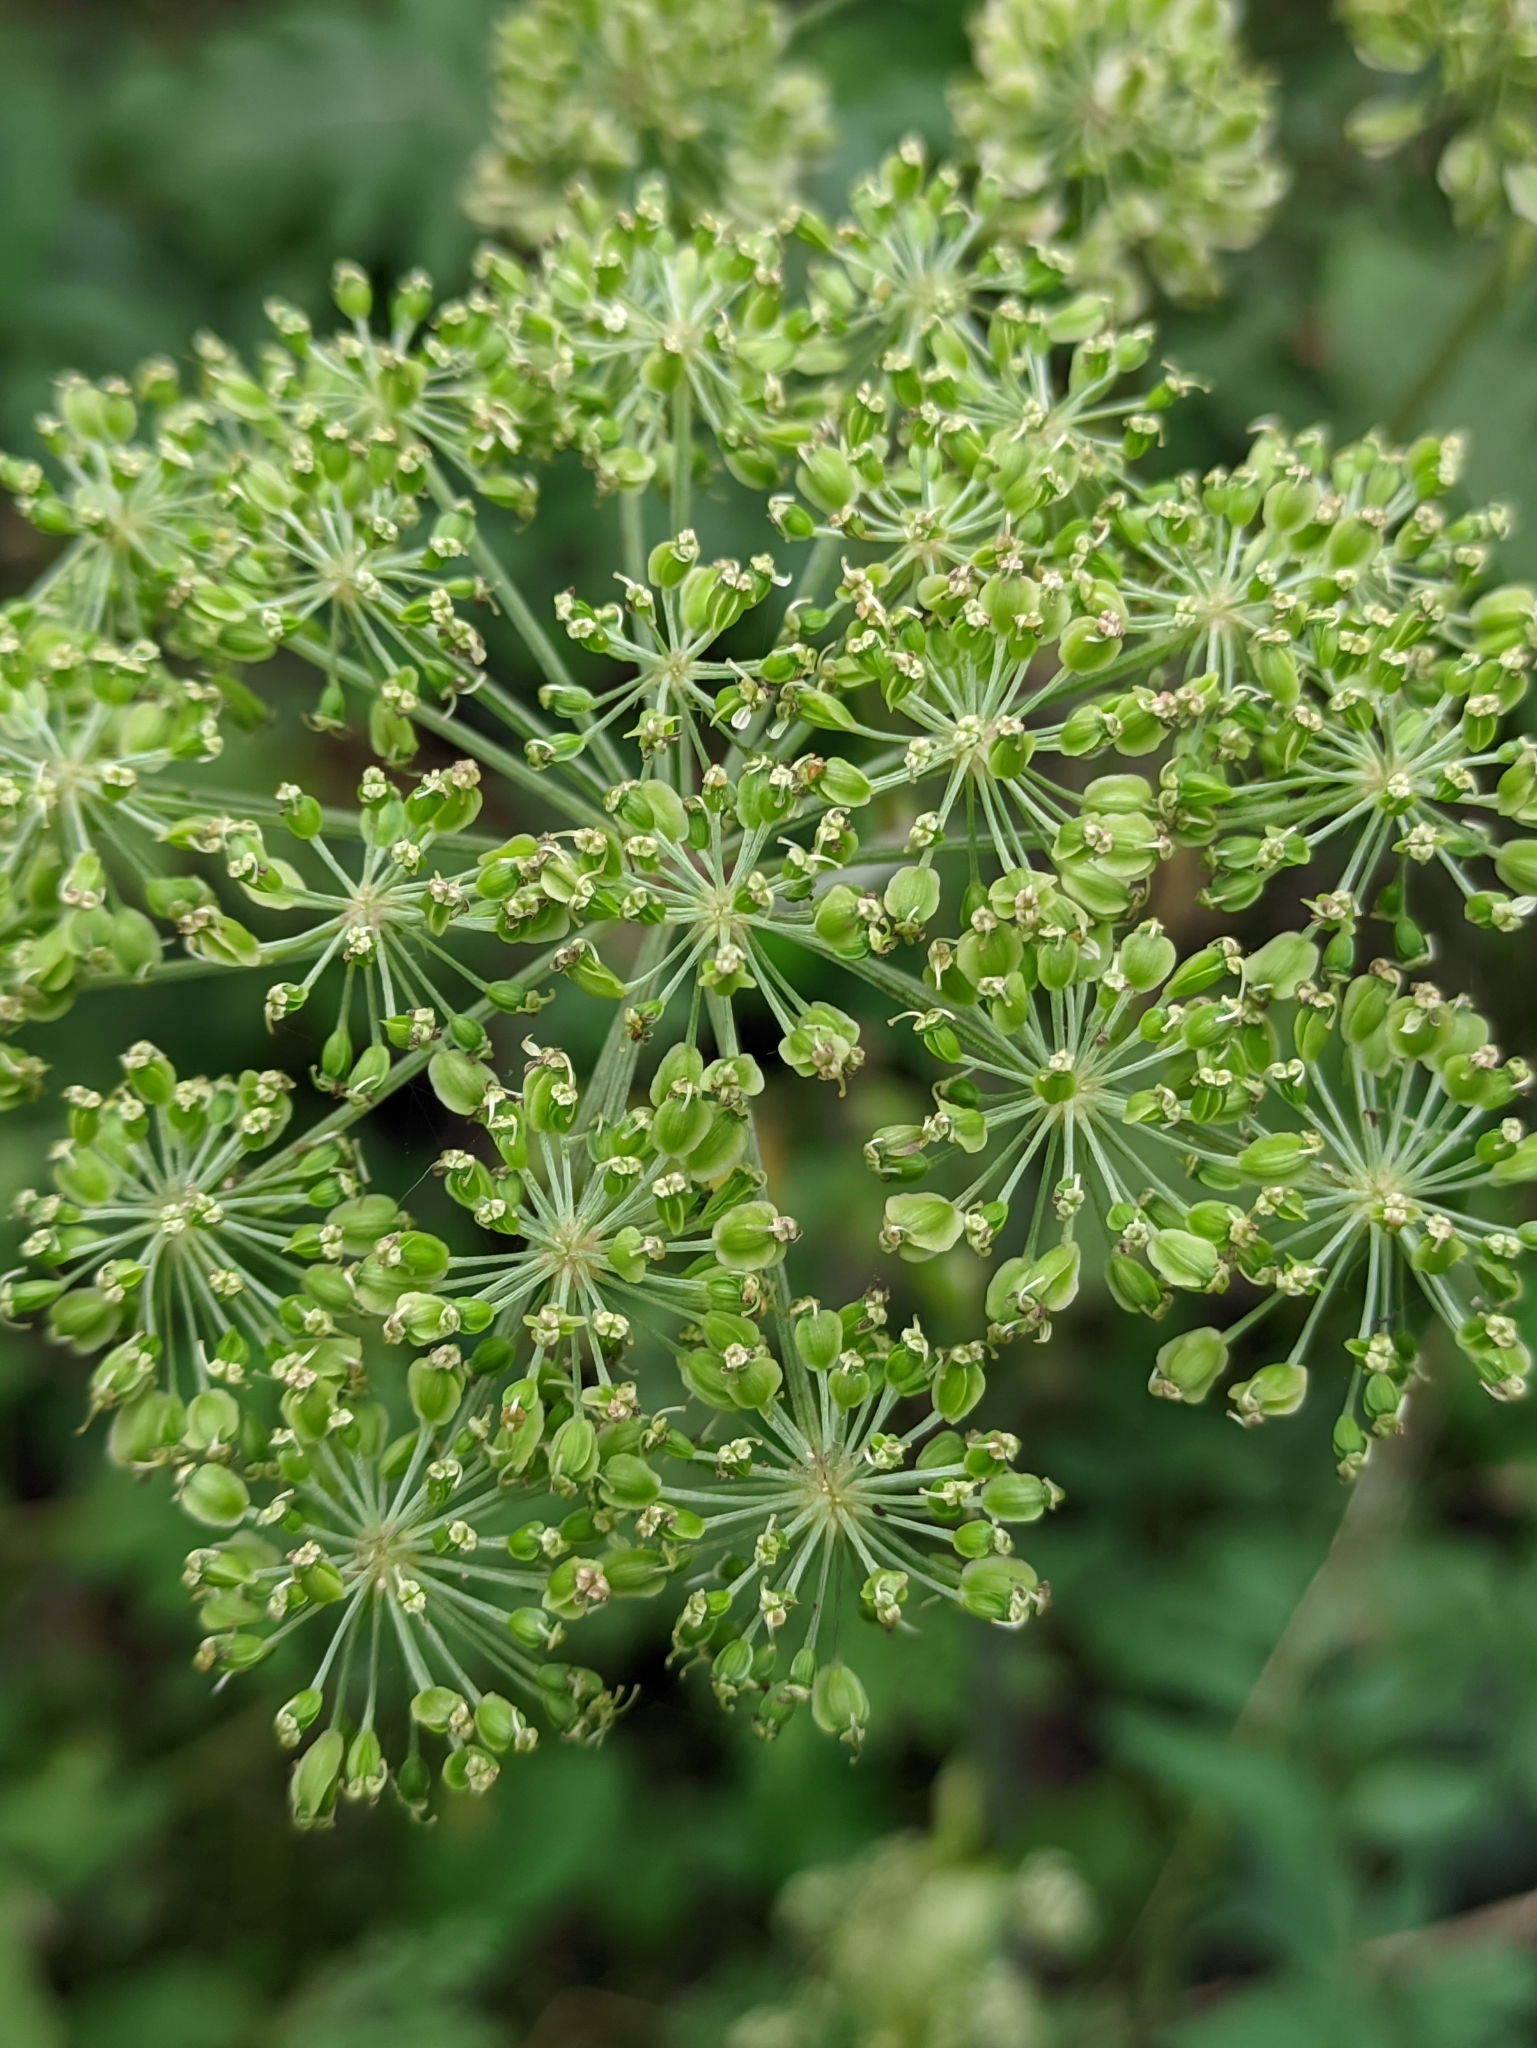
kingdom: Plantae
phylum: Tracheophyta
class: Magnoliopsida
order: Apiales
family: Apiaceae
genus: Angelica
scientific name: Angelica sylvestris
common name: Wild angelica
